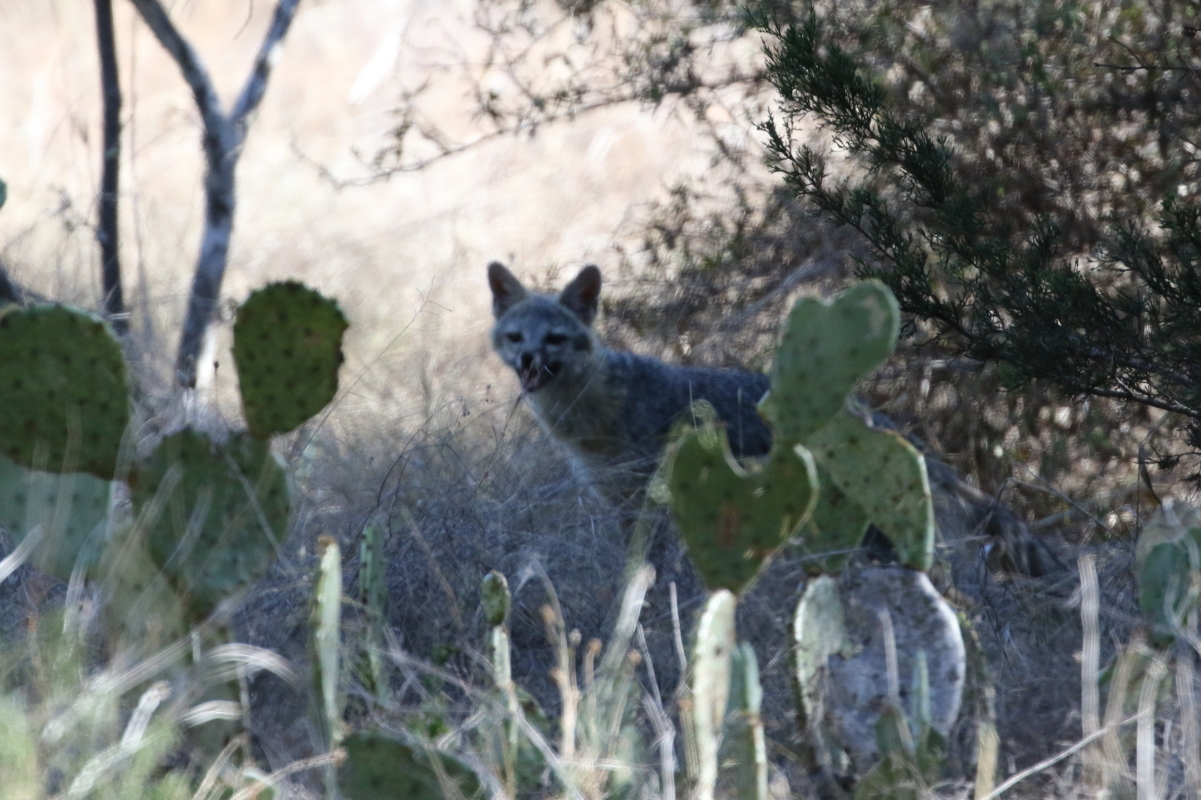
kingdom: Animalia
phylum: Chordata
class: Mammalia
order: Carnivora
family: Canidae
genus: Urocyon
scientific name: Urocyon cinereoargenteus
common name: Gray fox
